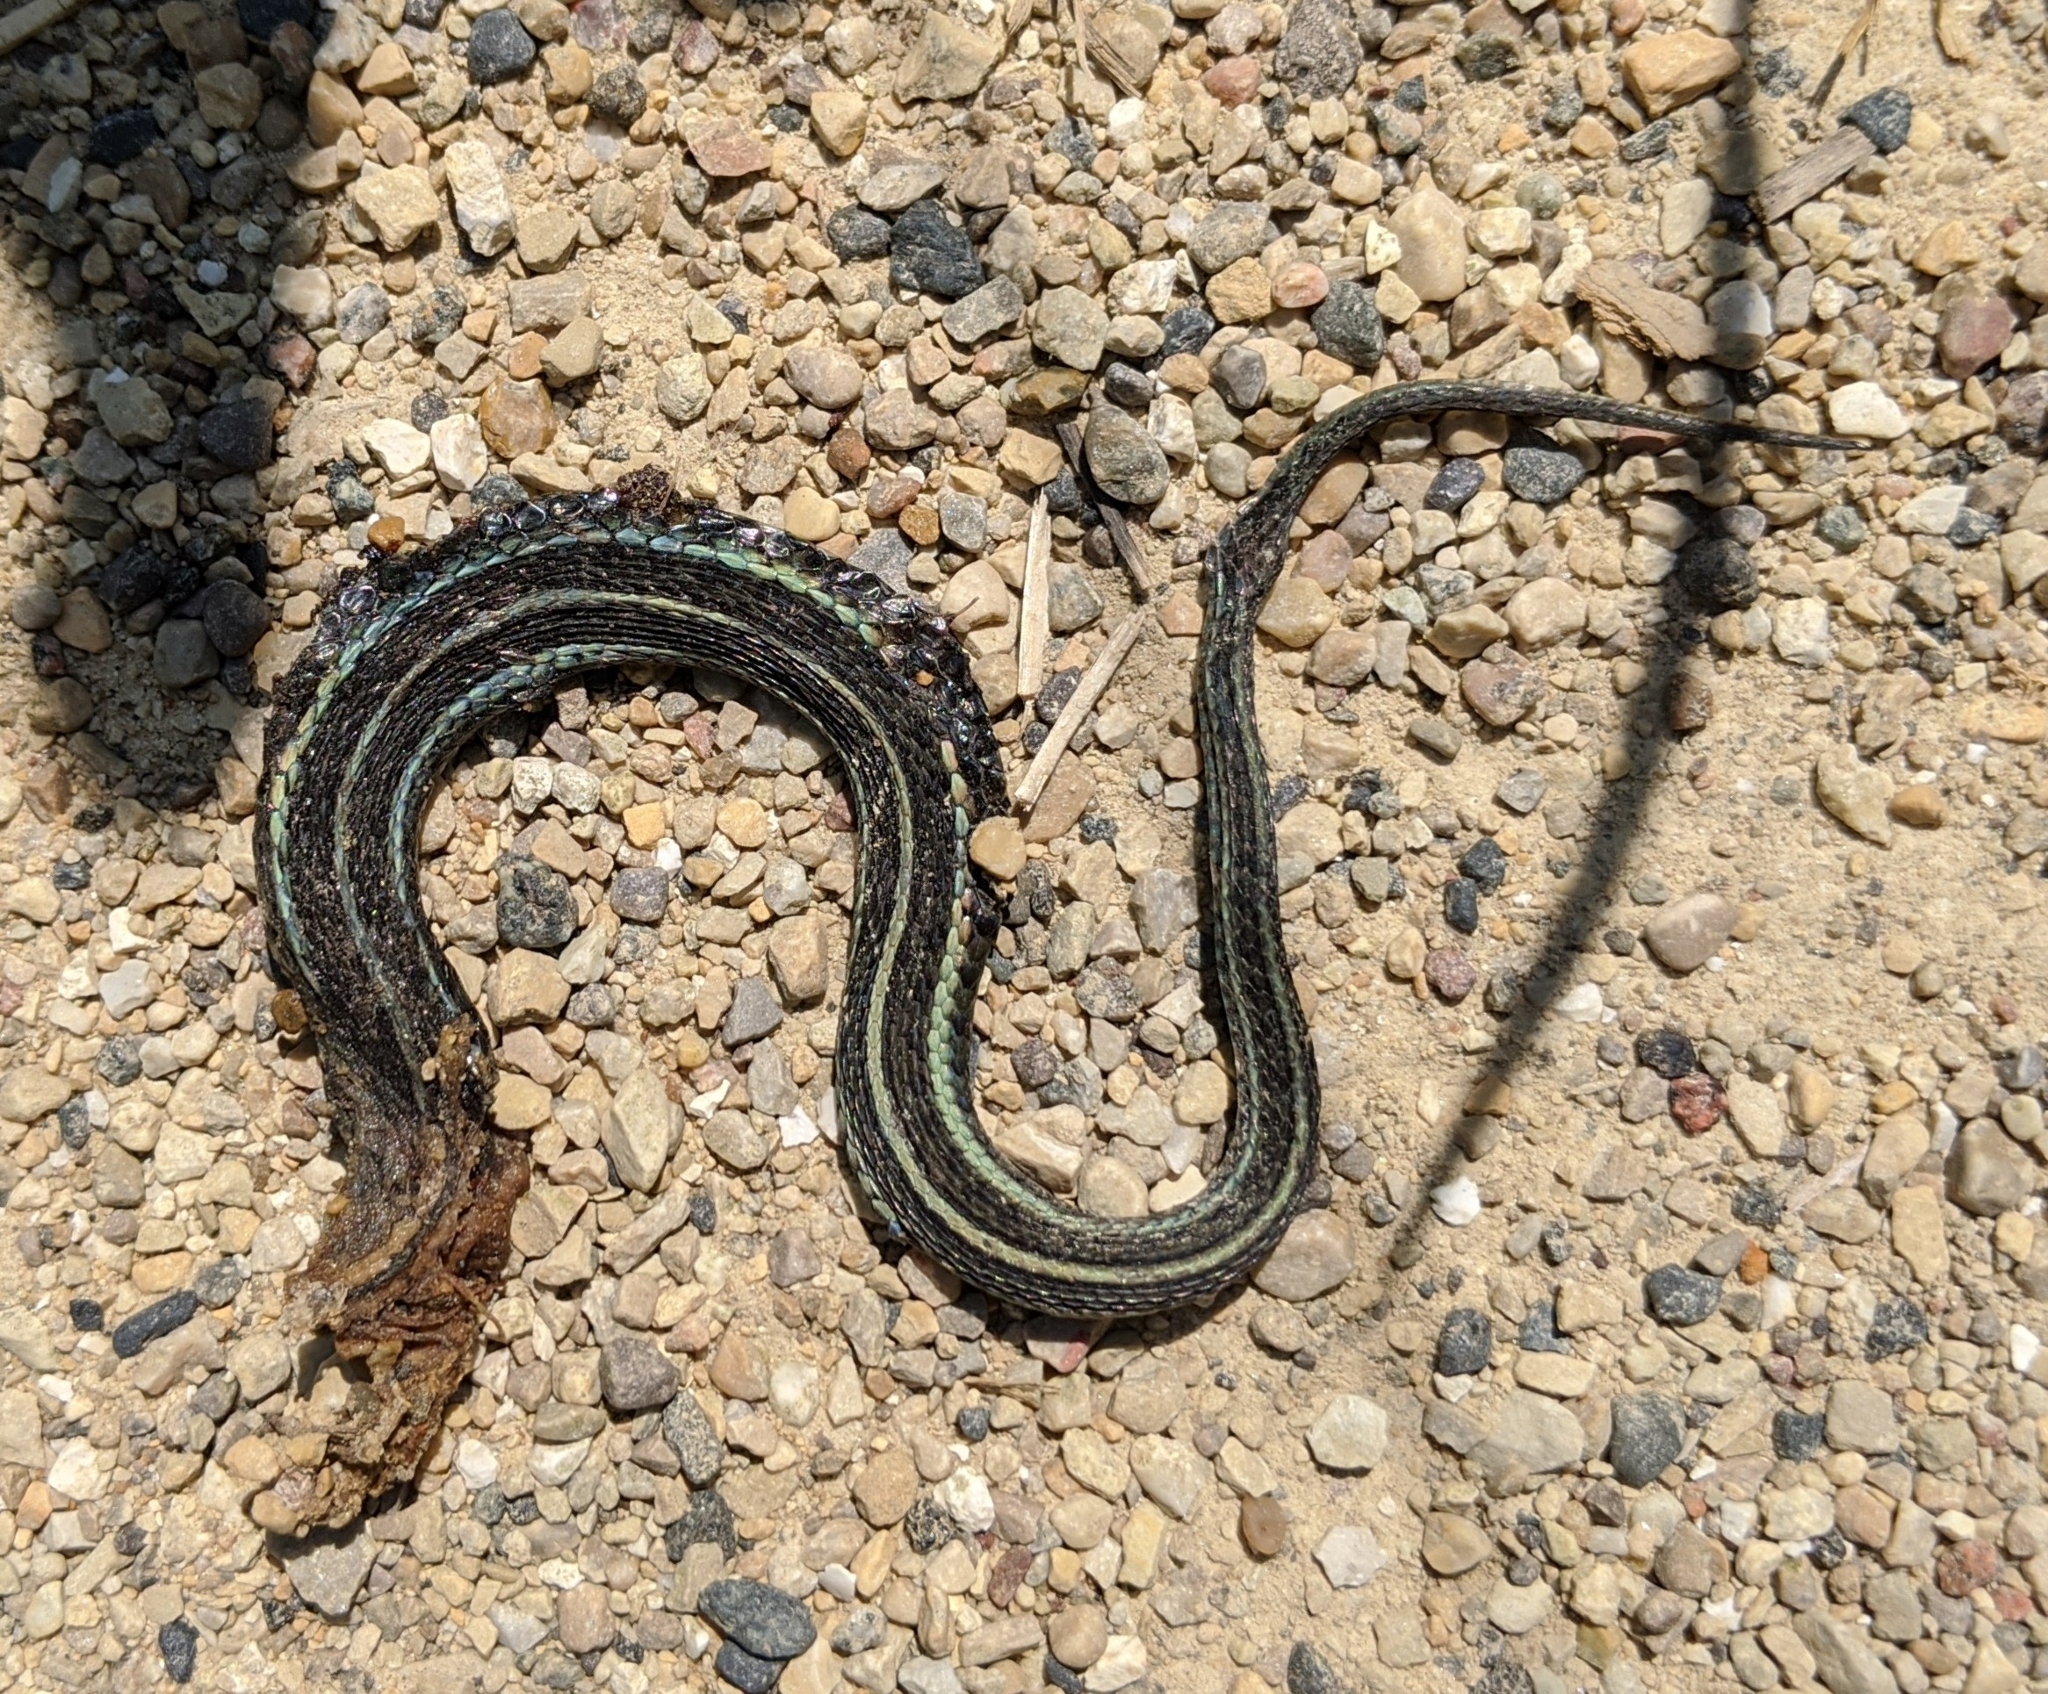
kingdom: Animalia
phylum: Chordata
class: Squamata
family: Colubridae
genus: Thamnophis
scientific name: Thamnophis sirtalis
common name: Common garter snake
